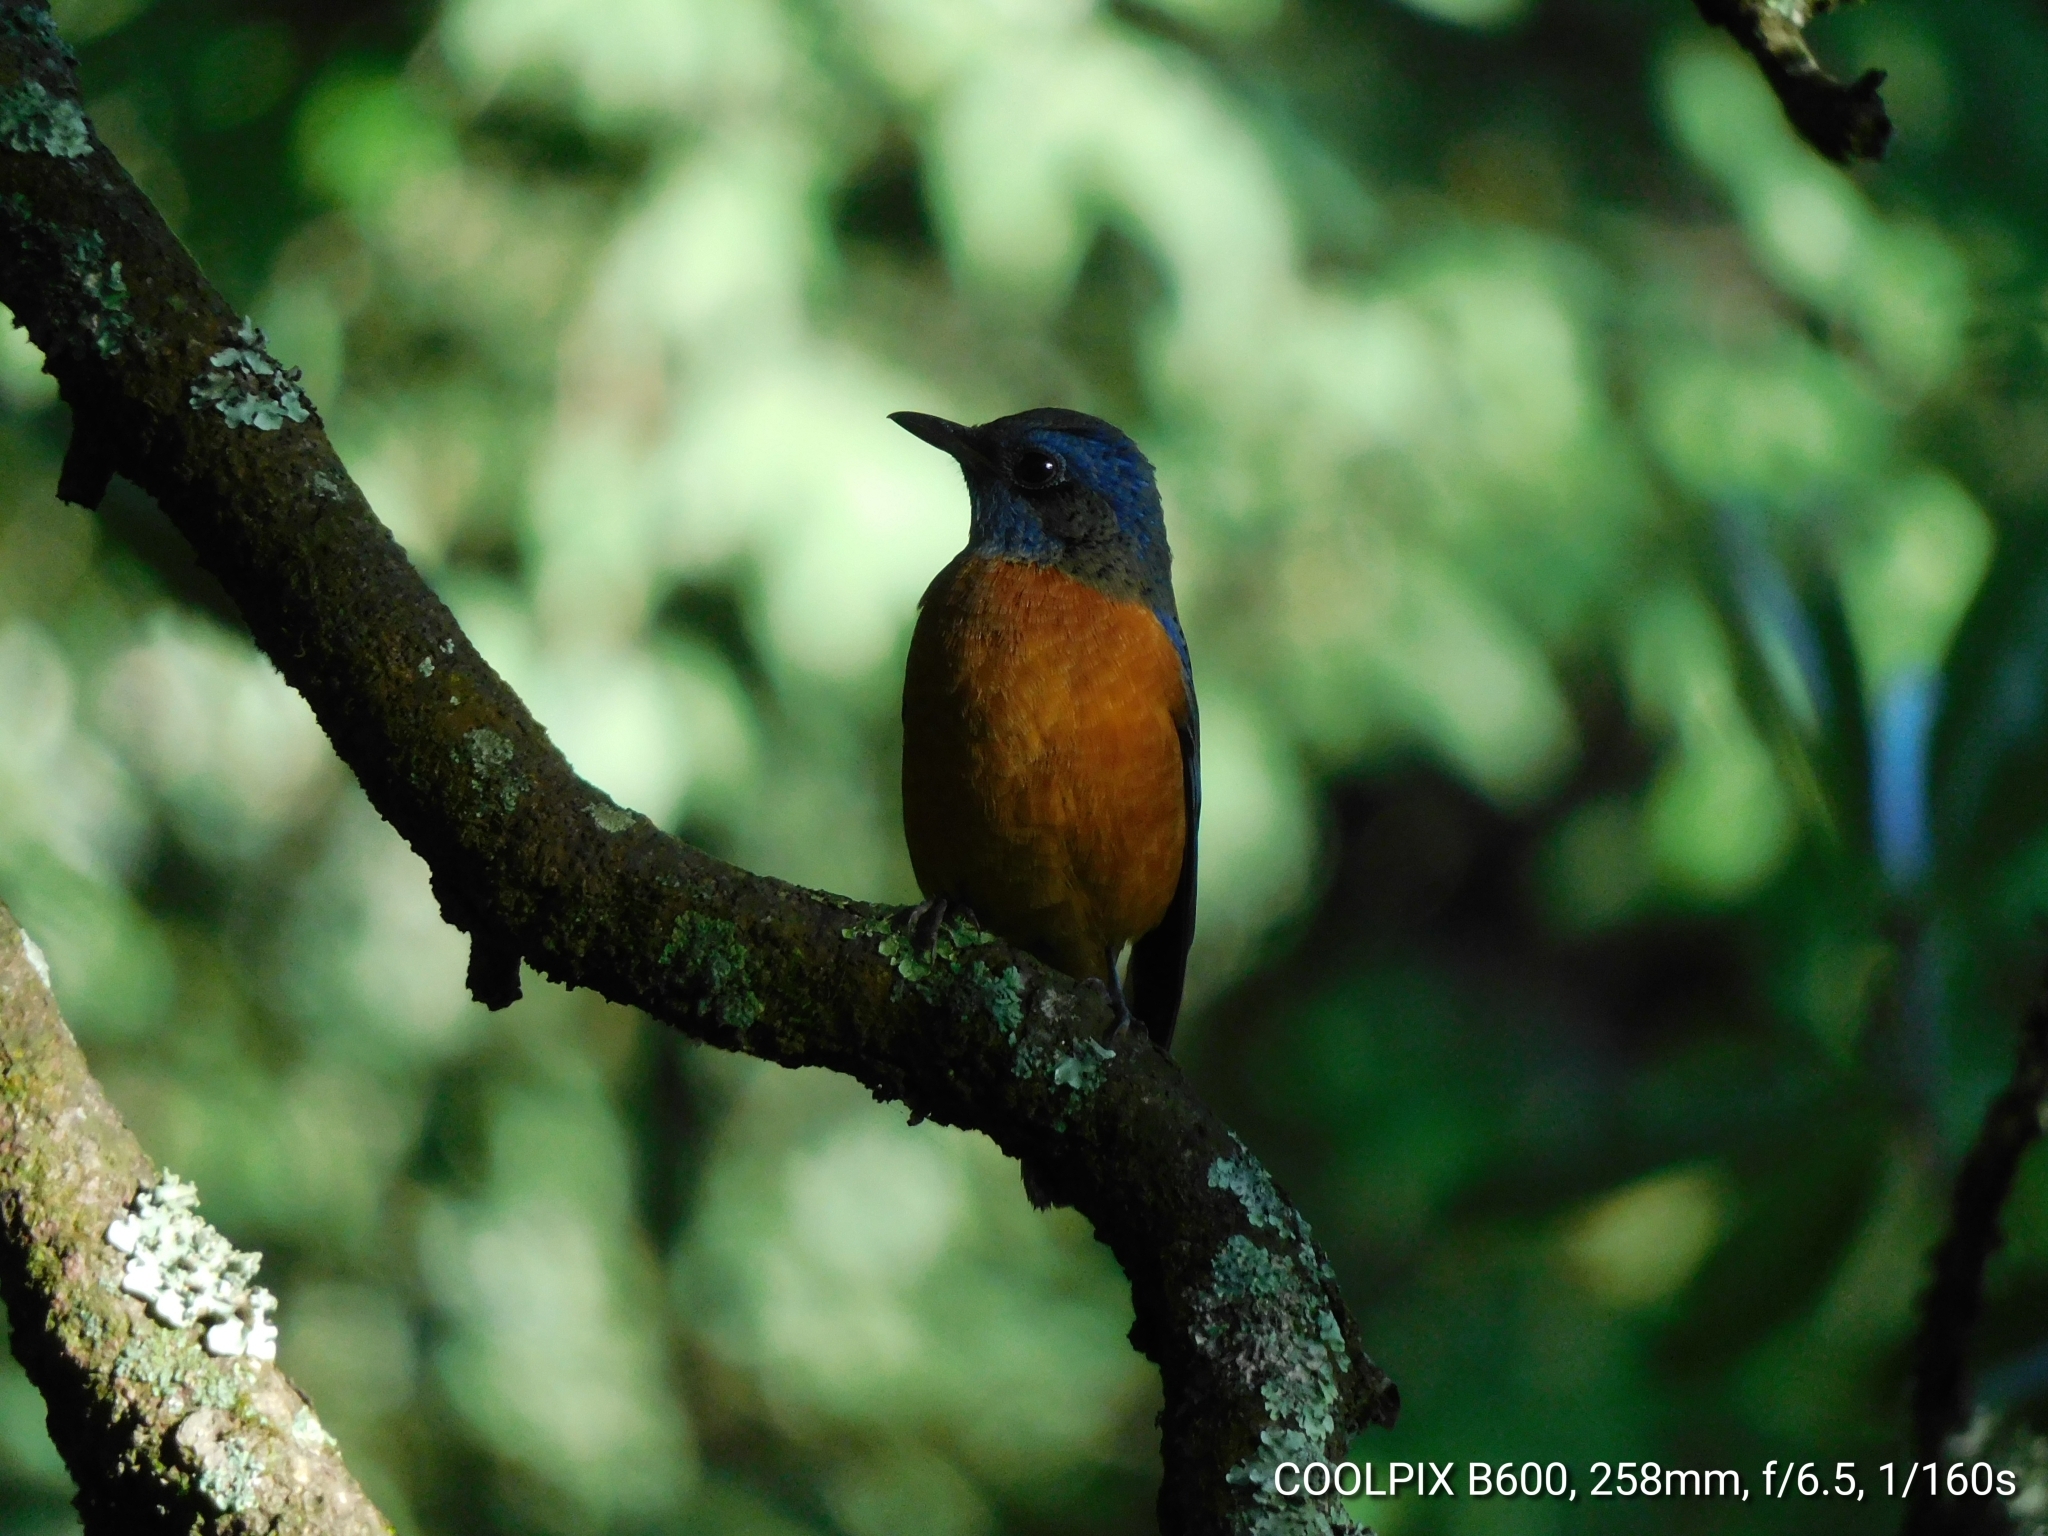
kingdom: Animalia
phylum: Chordata
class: Aves
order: Passeriformes
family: Muscicapidae
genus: Monticola
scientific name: Monticola cinclorhynchus
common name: Blue-capped rock thrush
